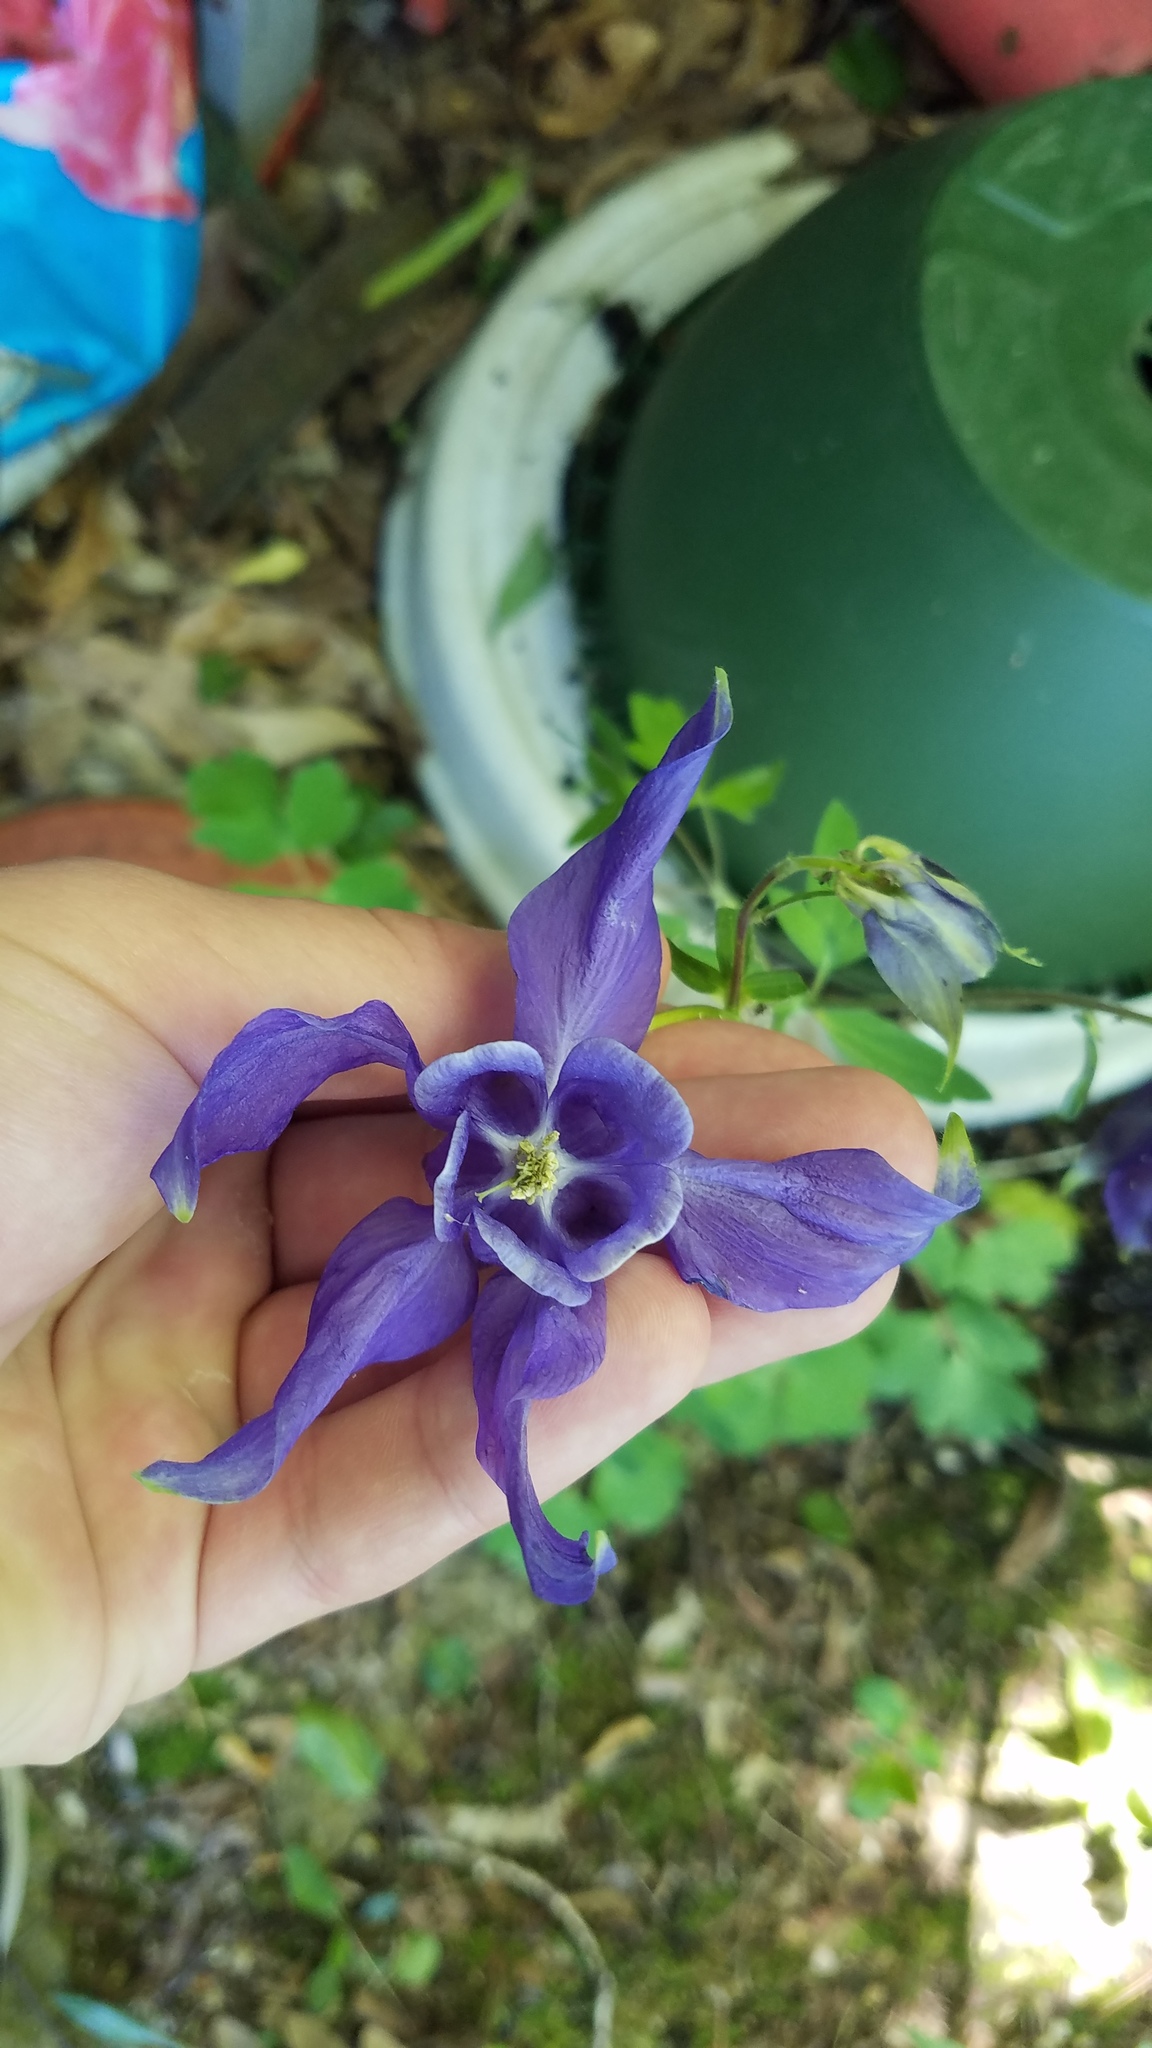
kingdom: Plantae
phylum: Tracheophyta
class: Magnoliopsida
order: Ranunculales
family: Ranunculaceae
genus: Aquilegia
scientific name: Aquilegia vulgaris
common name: Columbine
